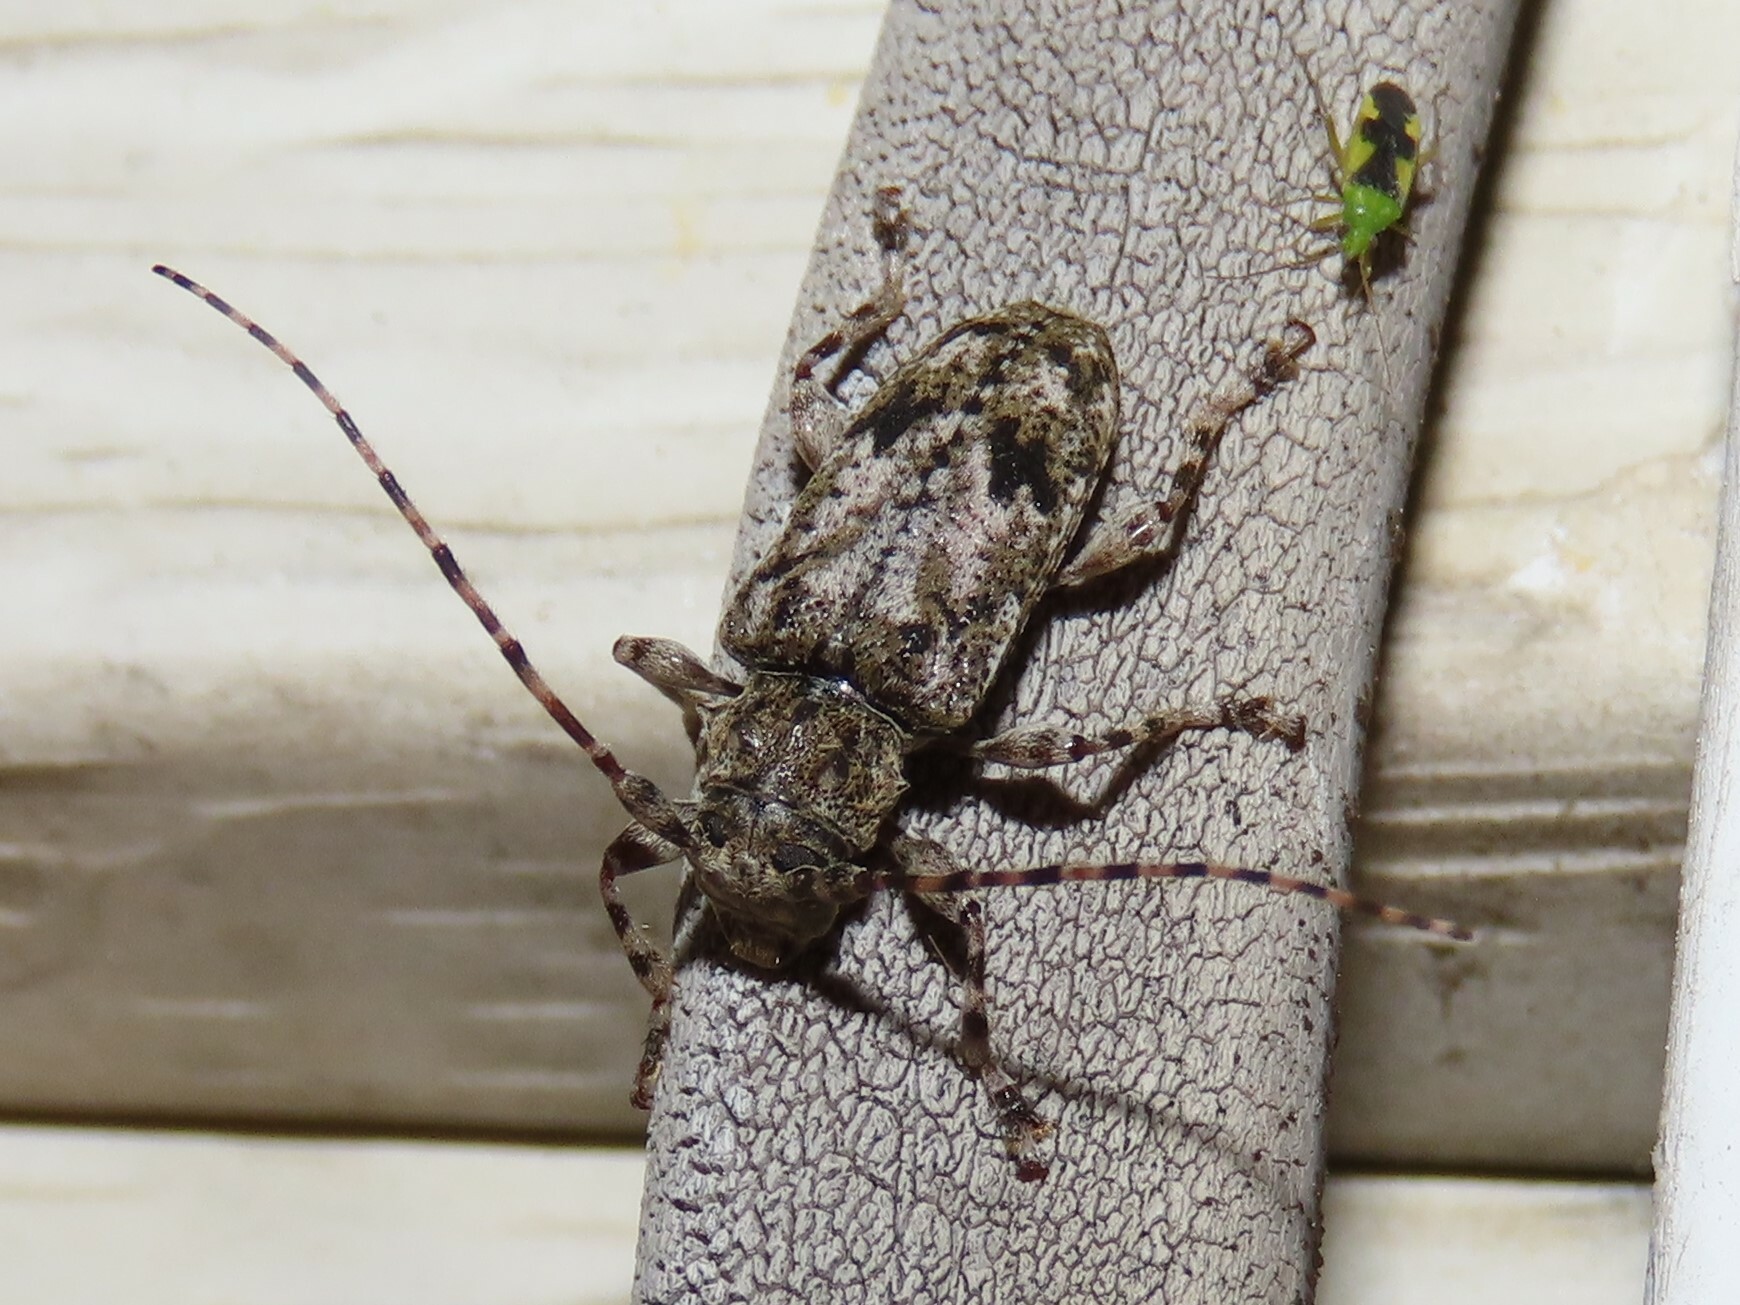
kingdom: Animalia
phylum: Arthropoda
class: Insecta
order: Coleoptera
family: Cerambycidae
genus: Aegomorphus
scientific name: Aegomorphus modestus
